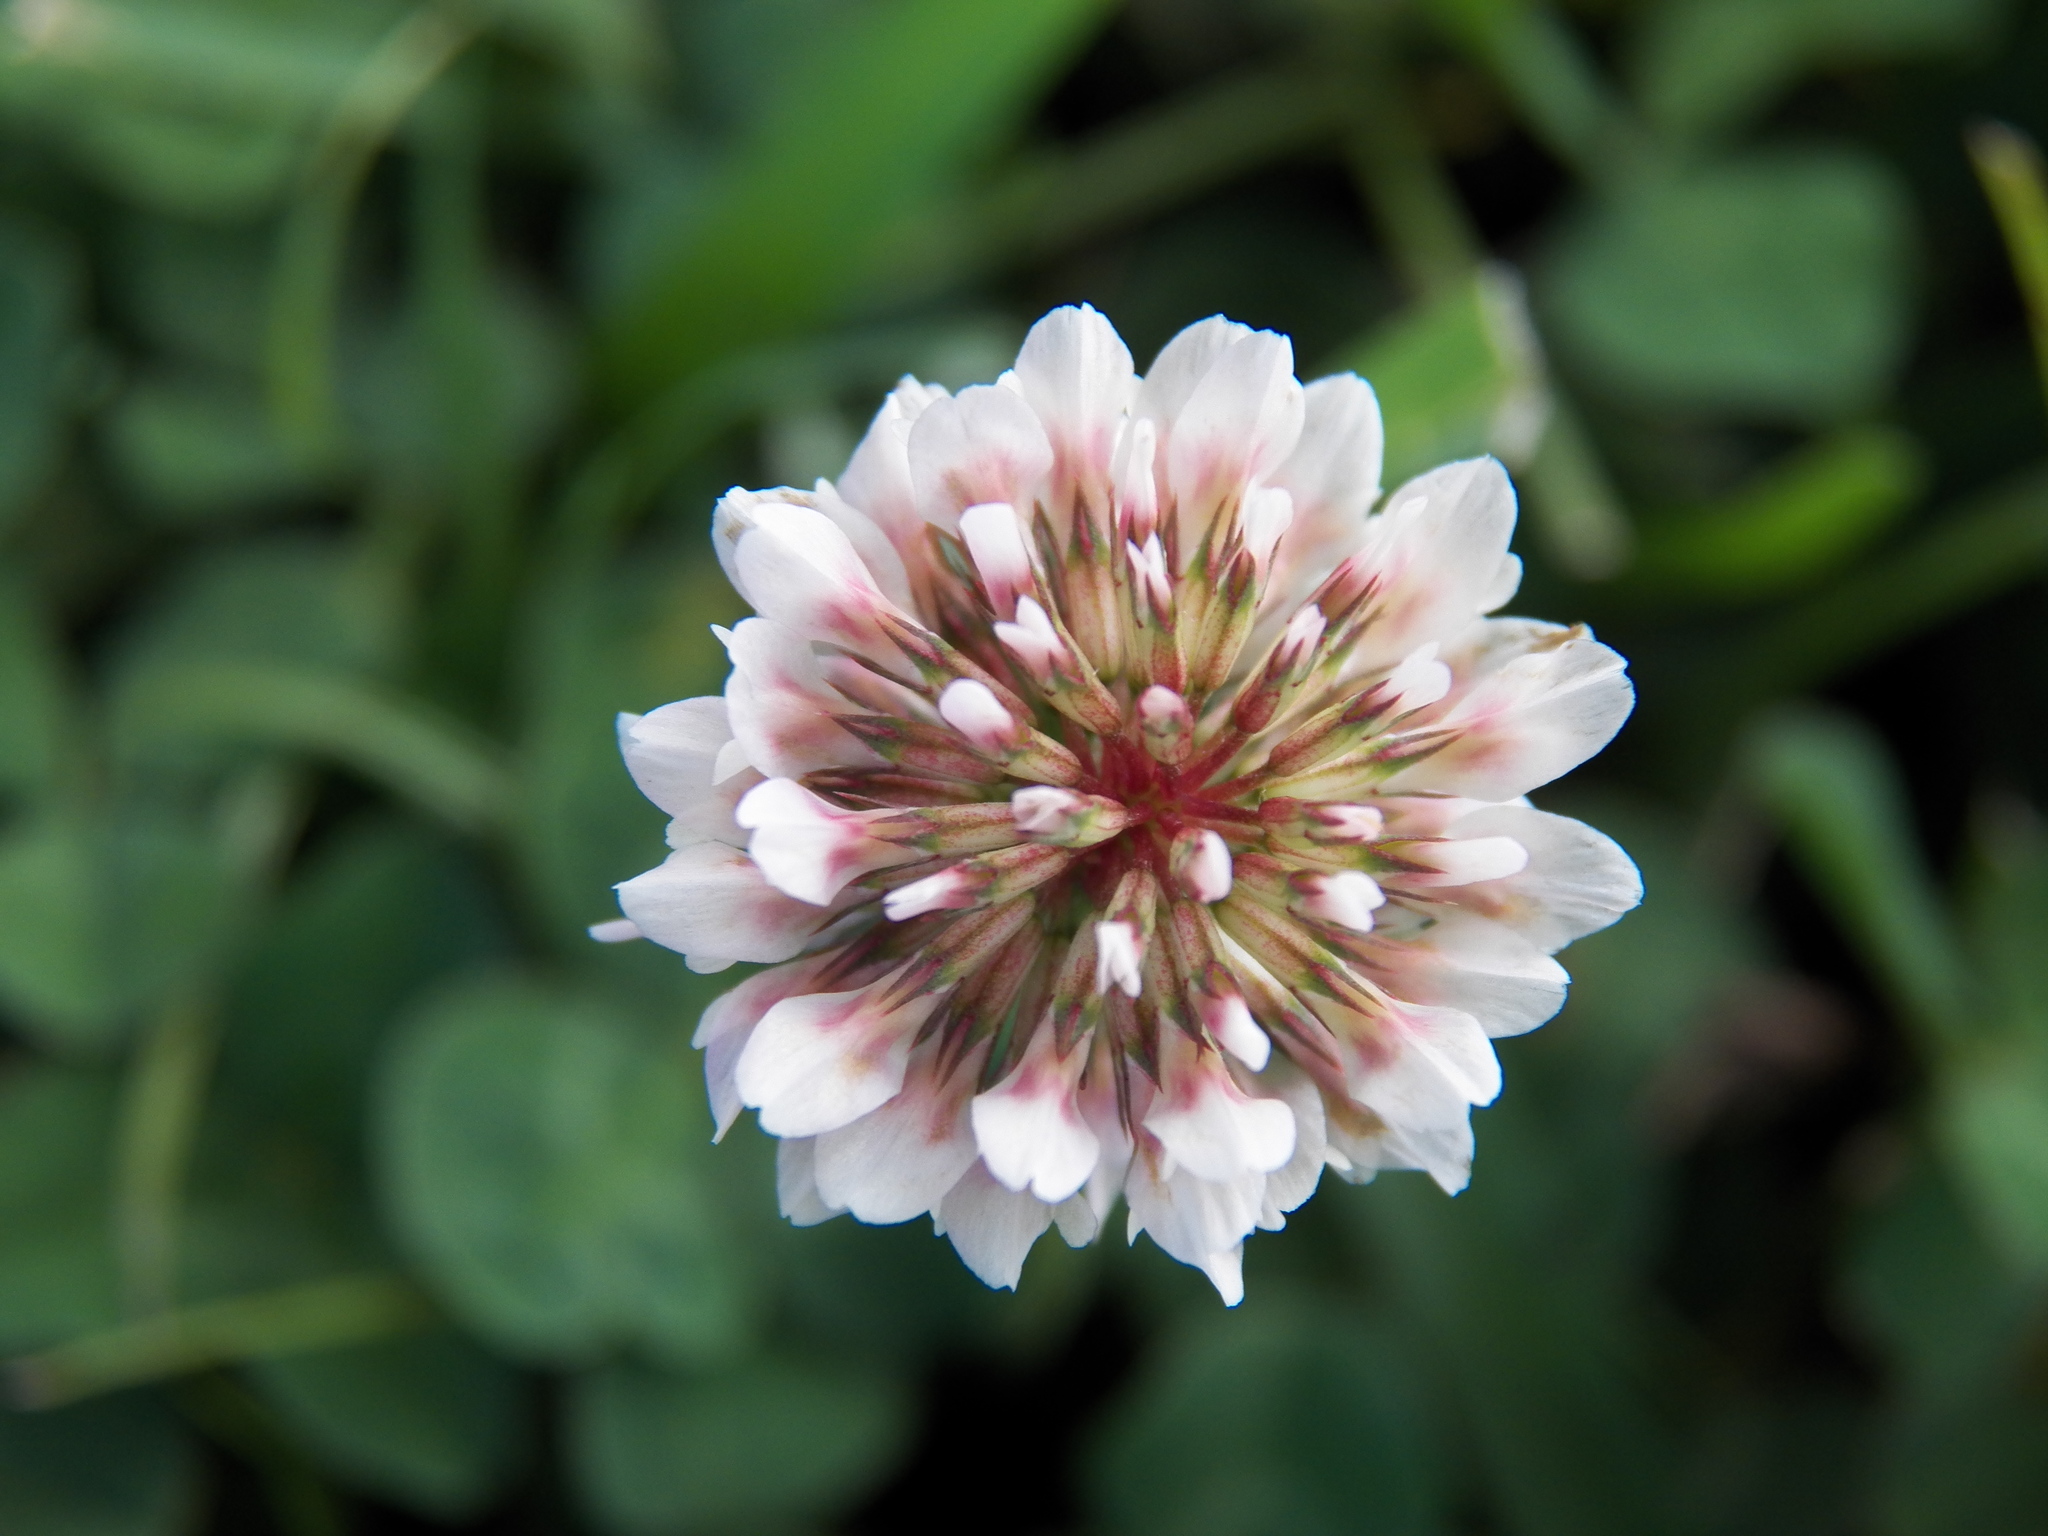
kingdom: Plantae
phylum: Tracheophyta
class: Magnoliopsida
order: Fabales
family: Fabaceae
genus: Trifolium
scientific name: Trifolium repens
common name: White clover
